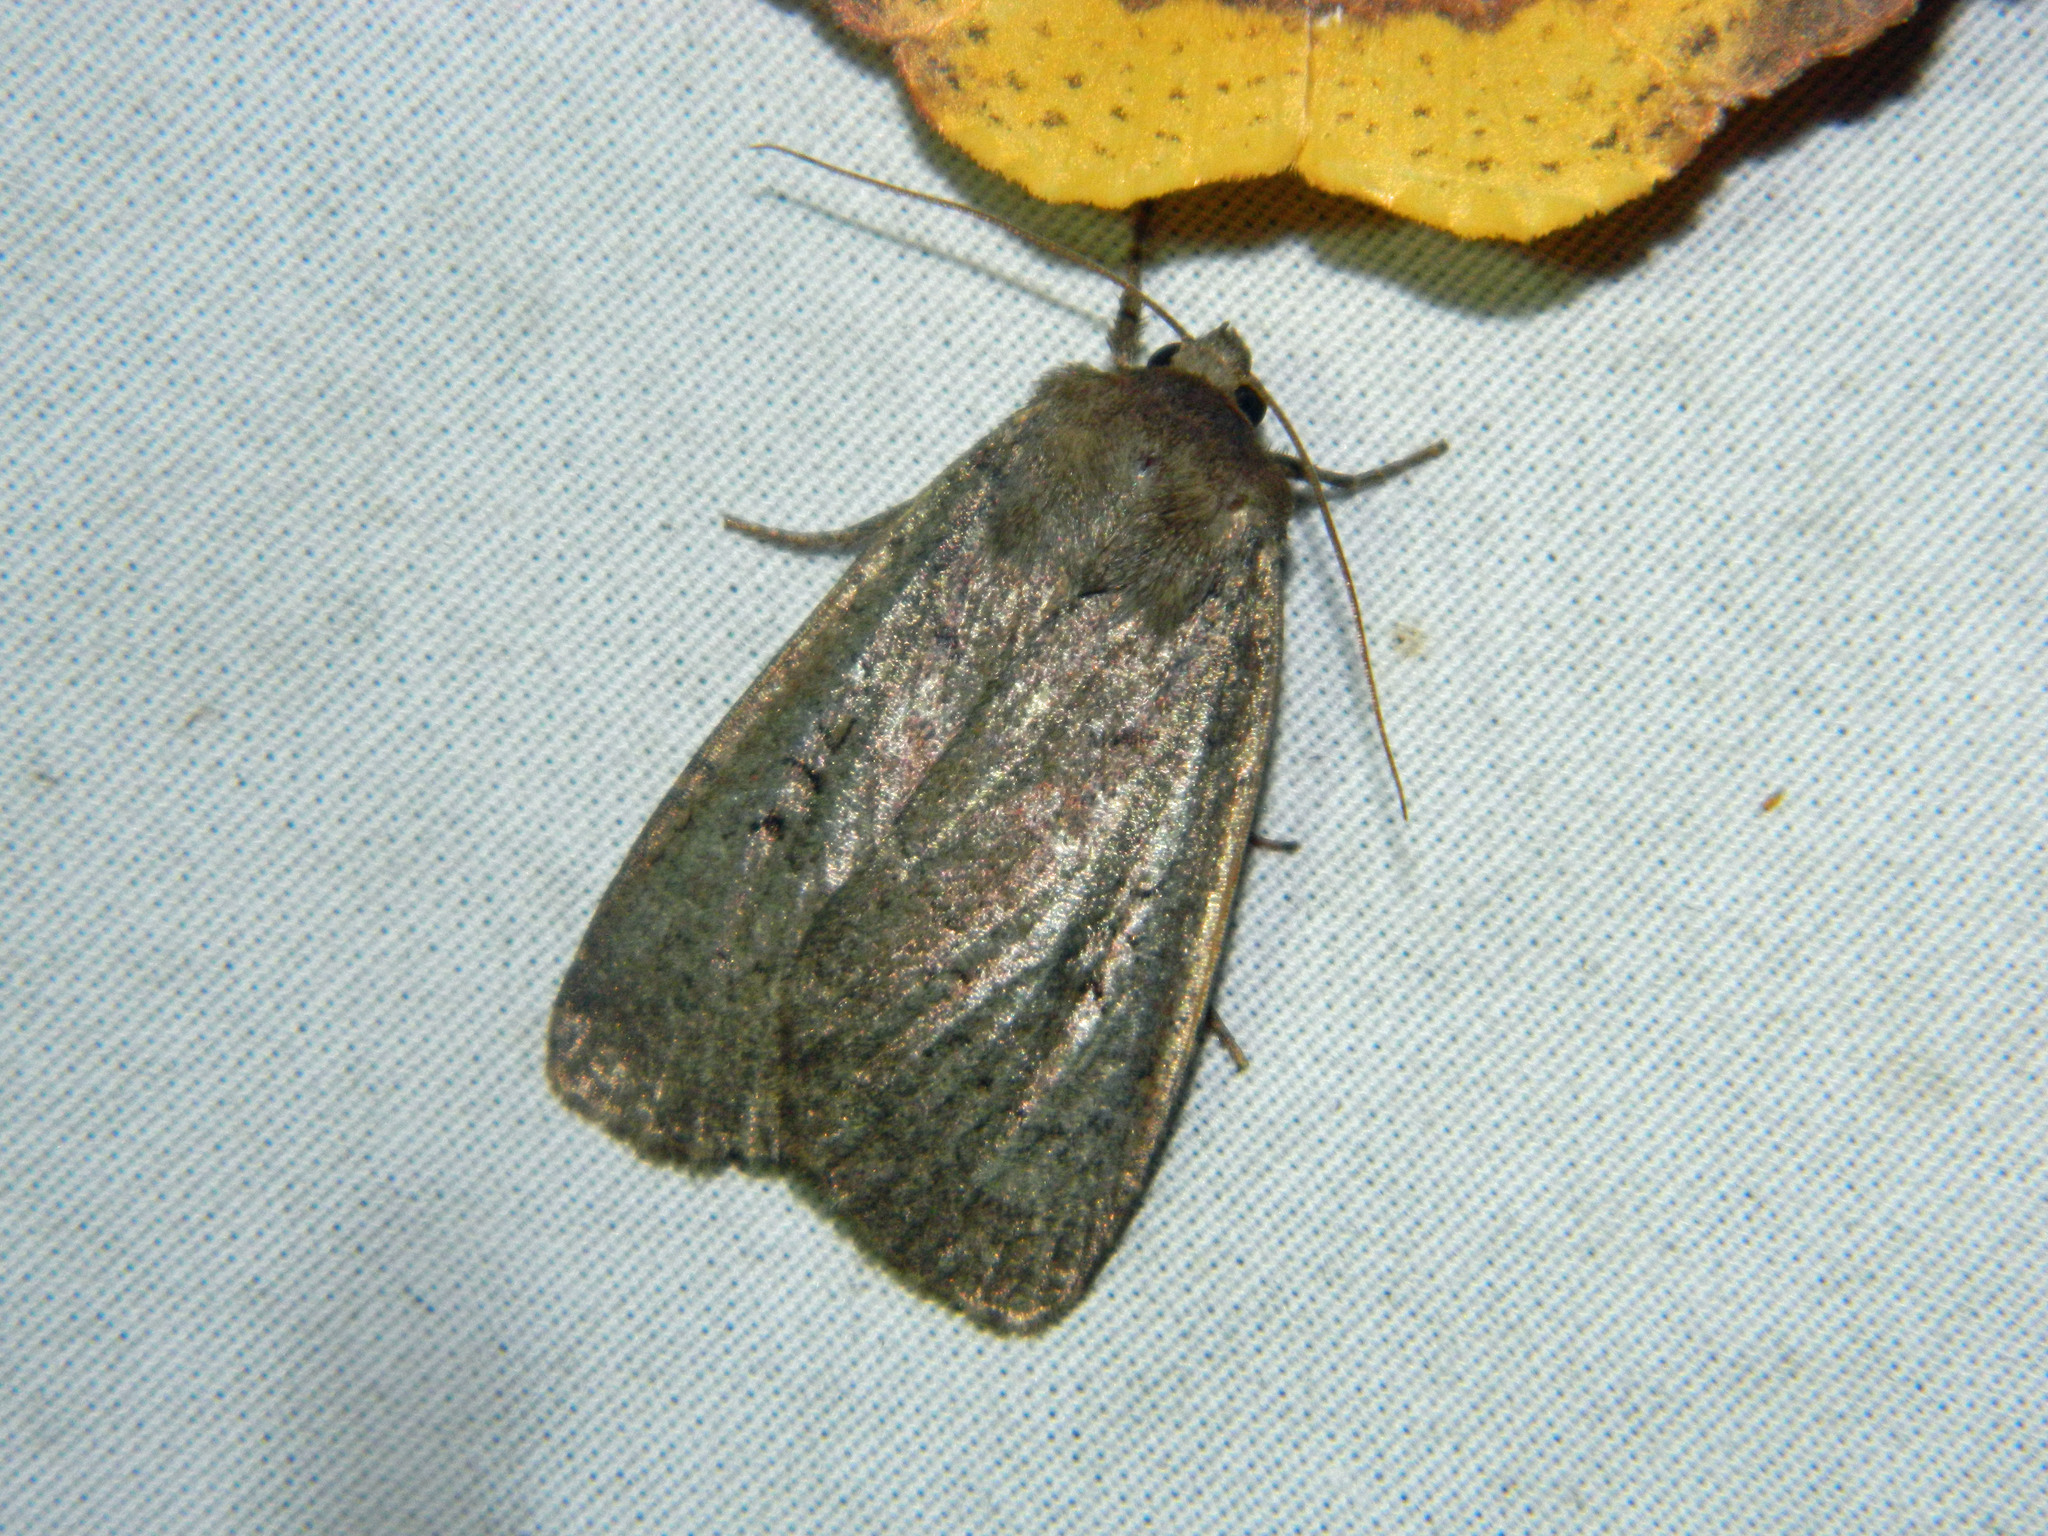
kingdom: Animalia
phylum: Arthropoda
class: Insecta
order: Lepidoptera
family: Noctuidae
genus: Graphiphora
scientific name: Graphiphora augur
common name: Double dart
